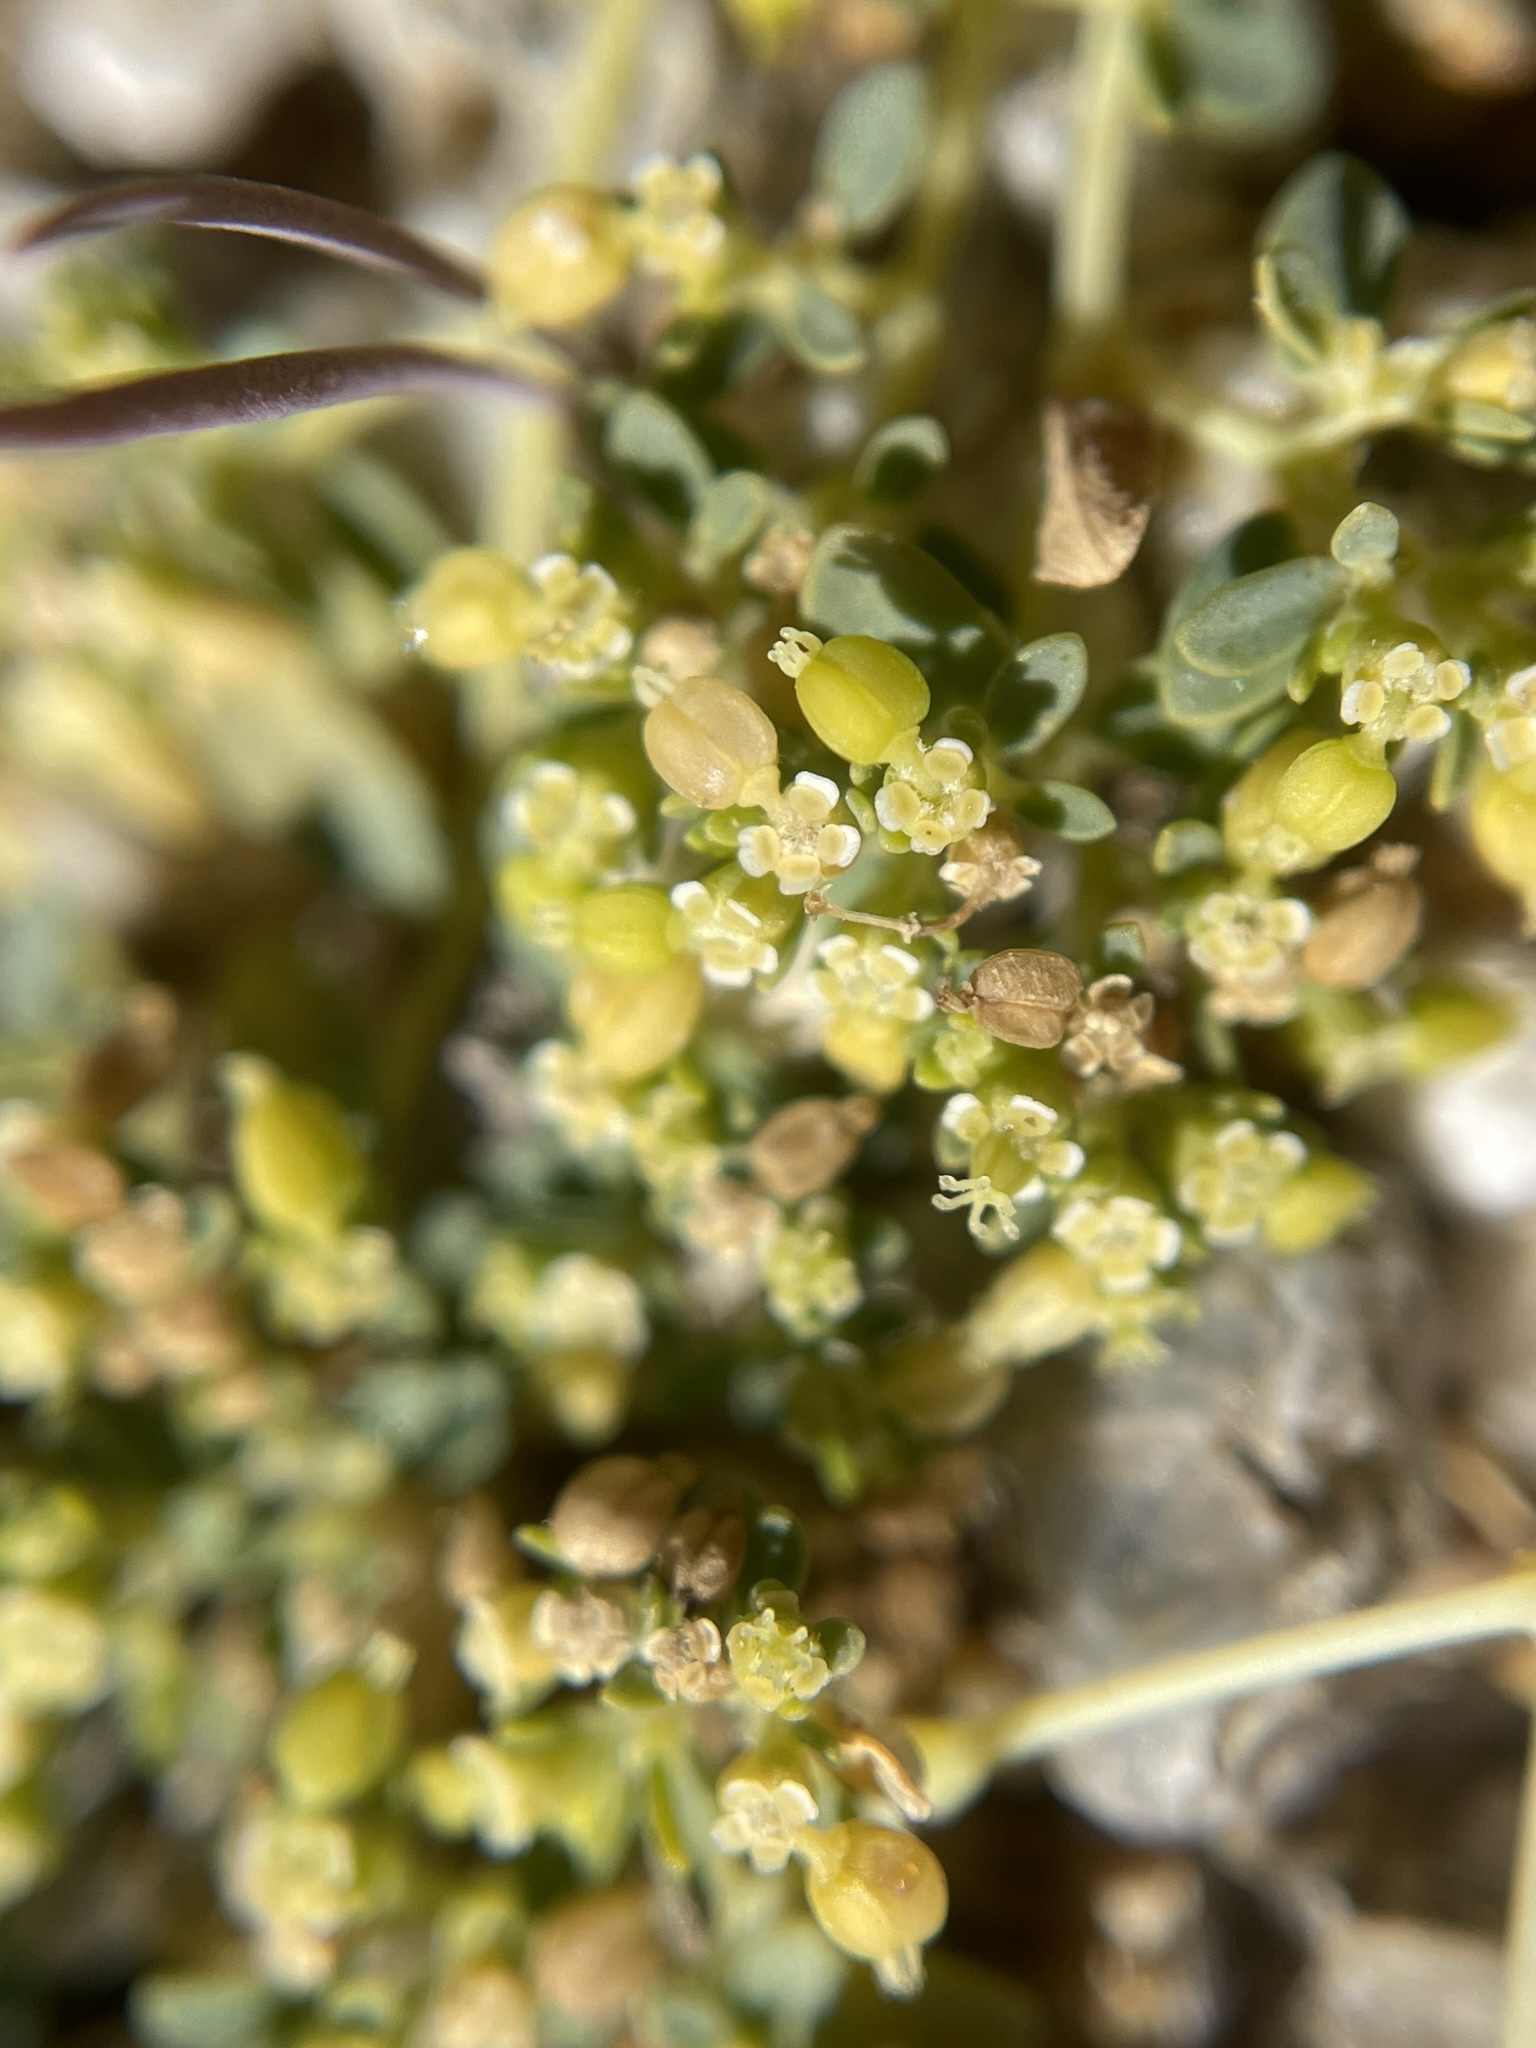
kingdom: Plantae
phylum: Tracheophyta
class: Magnoliopsida
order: Malpighiales
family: Euphorbiaceae
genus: Euphorbia
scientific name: Euphorbia polycarpa
